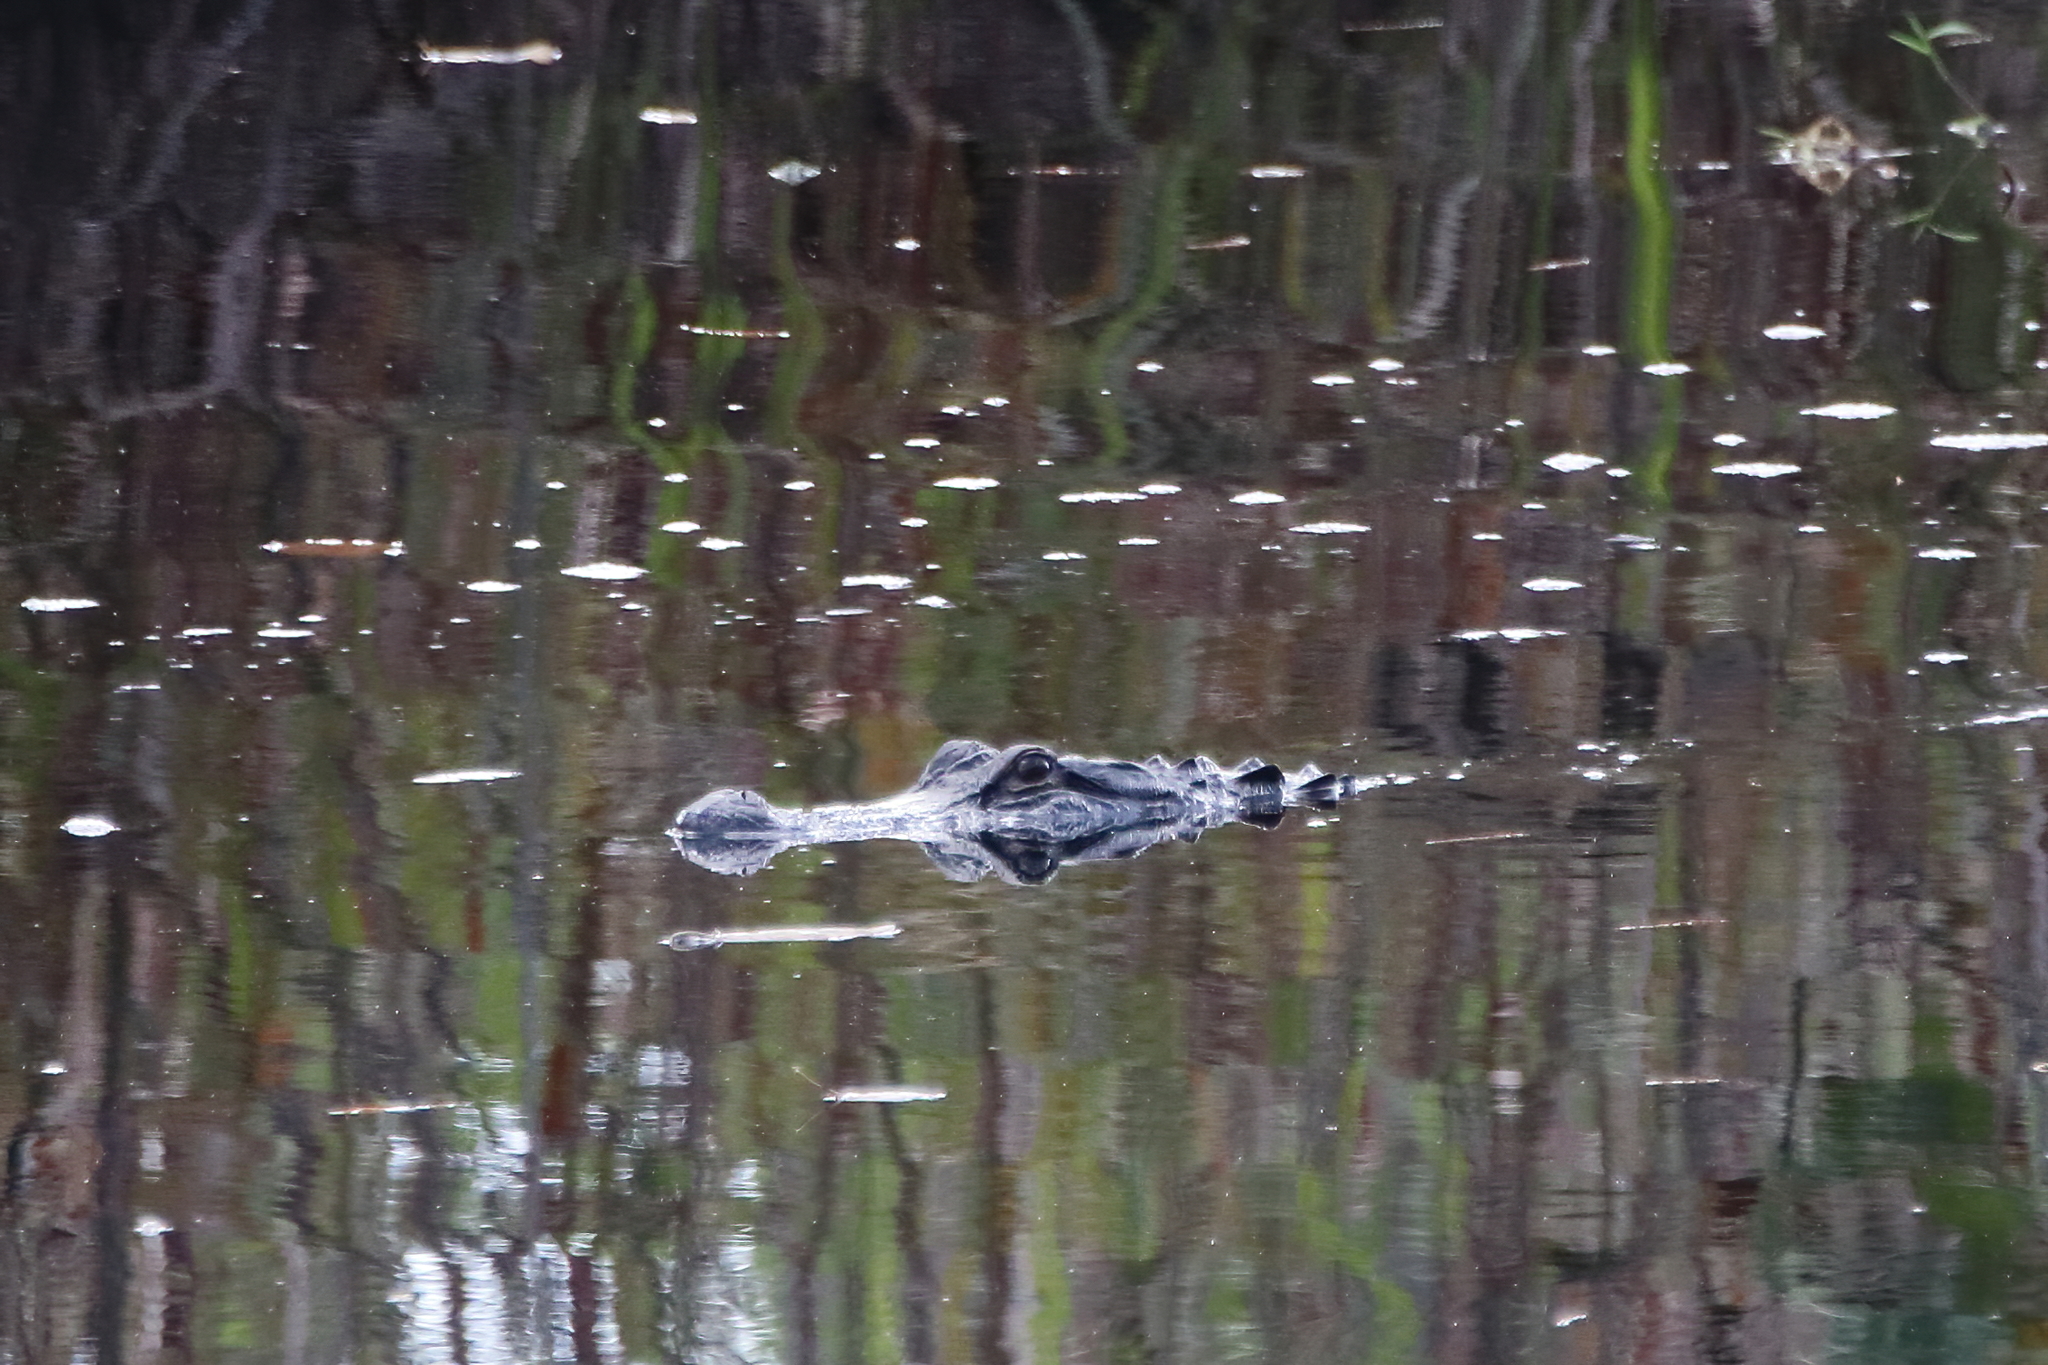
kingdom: Animalia
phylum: Chordata
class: Crocodylia
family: Alligatoridae
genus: Alligator
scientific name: Alligator mississippiensis
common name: American alligator
